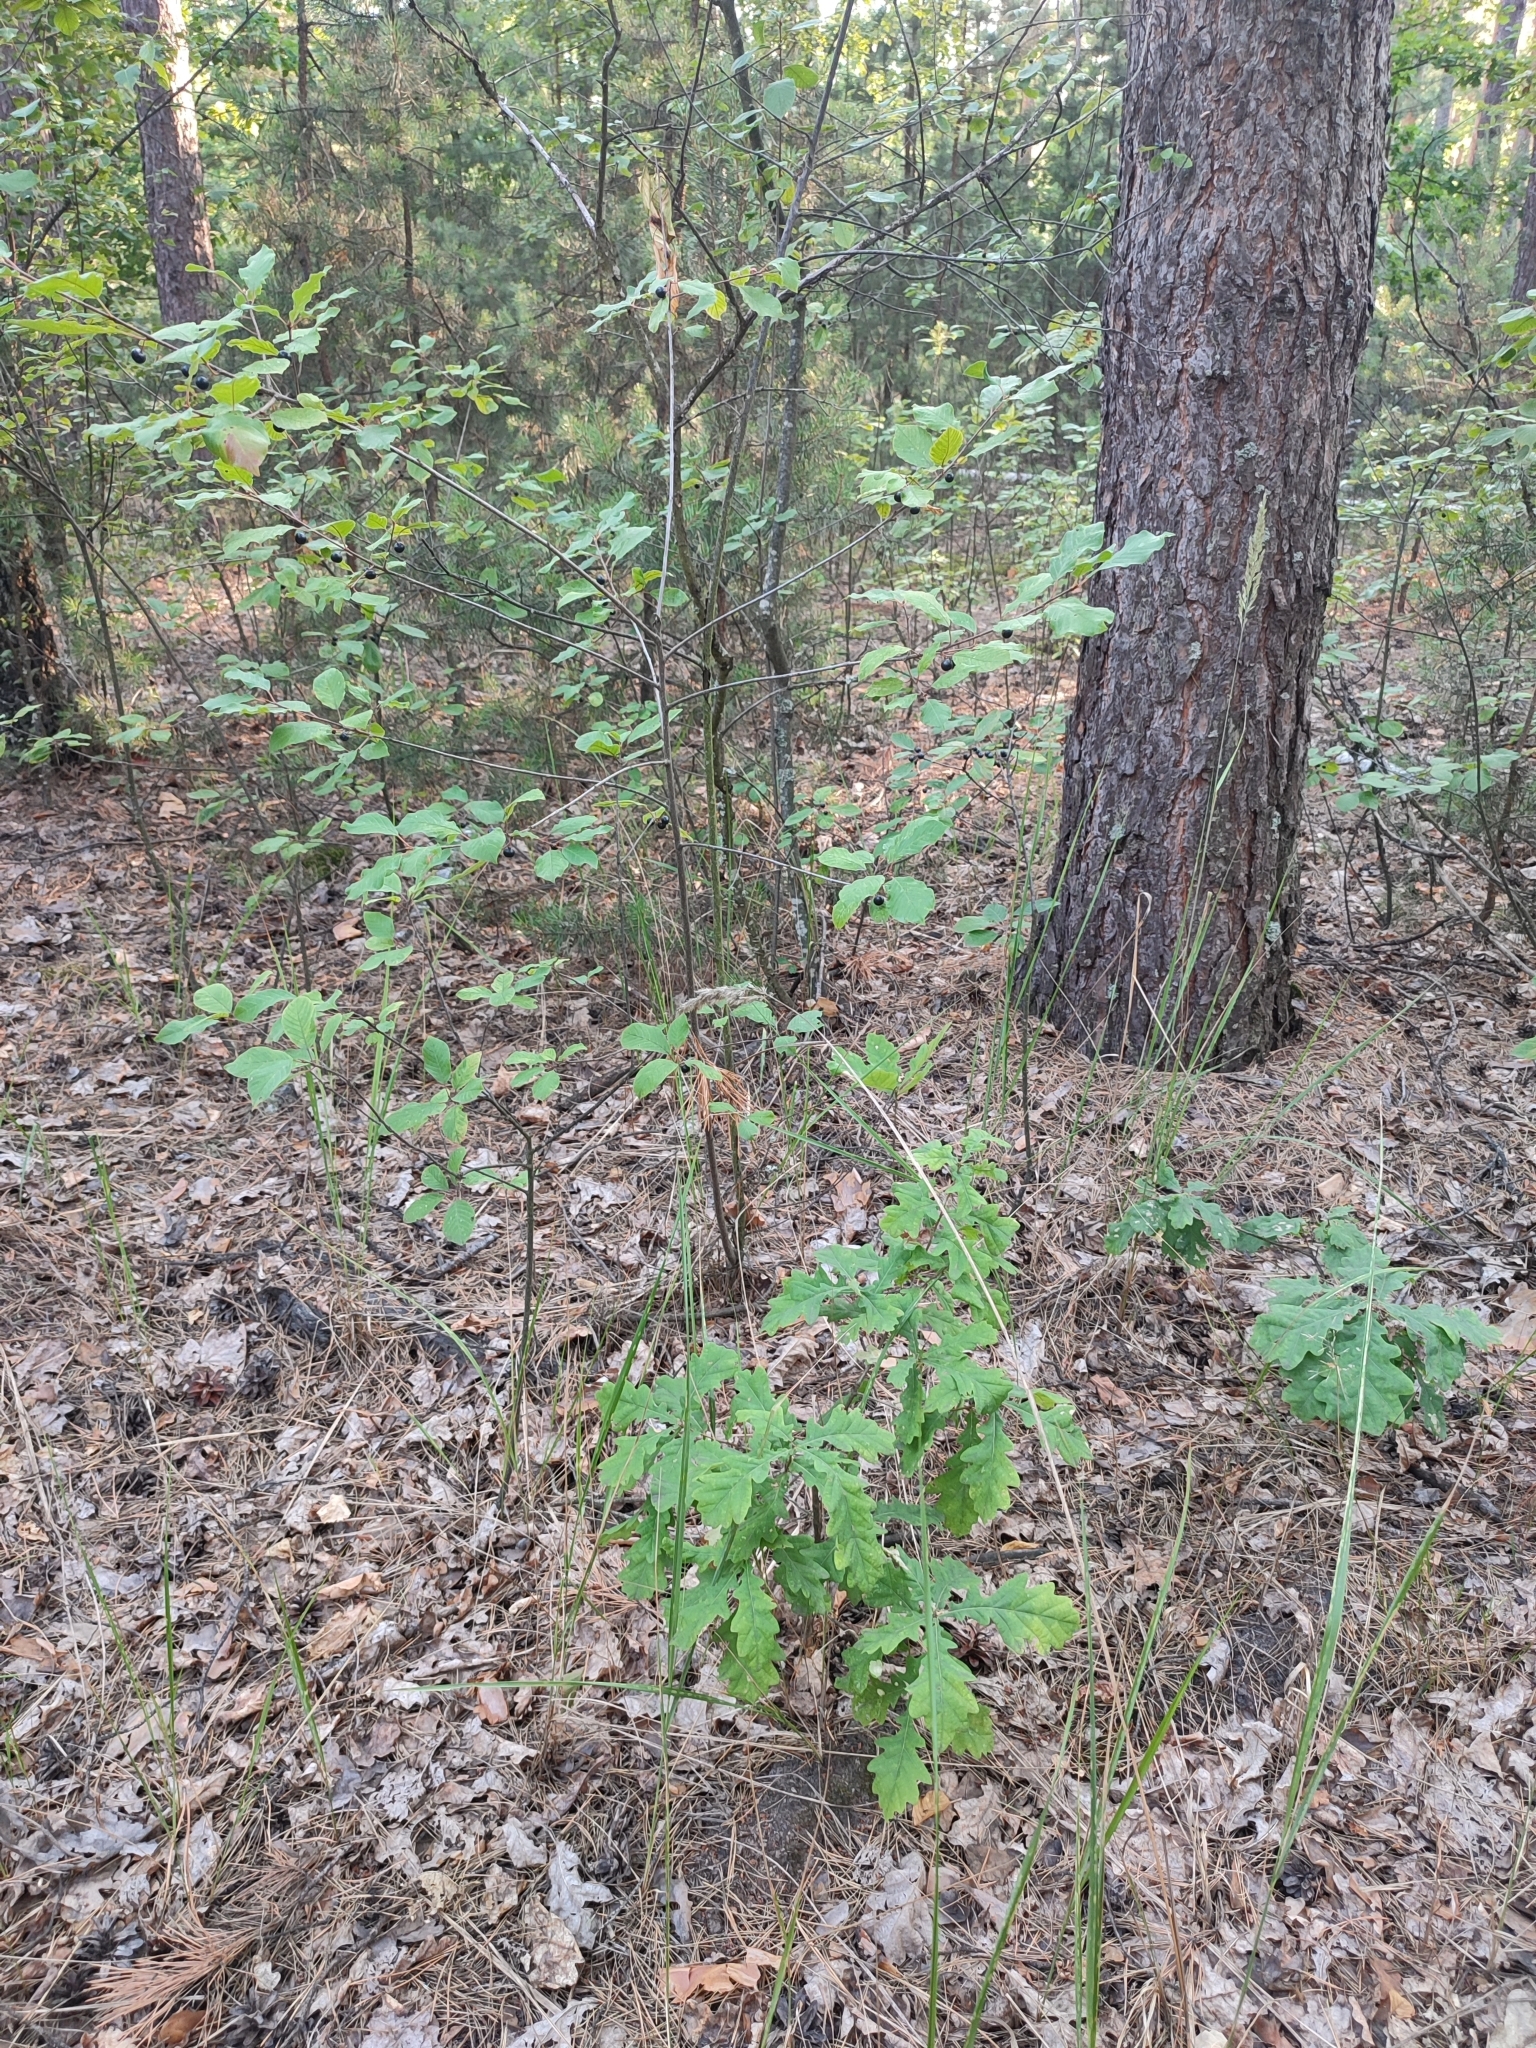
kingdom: Plantae
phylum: Tracheophyta
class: Magnoliopsida
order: Fagales
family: Fagaceae
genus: Quercus
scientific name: Quercus robur
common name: Pedunculate oak
